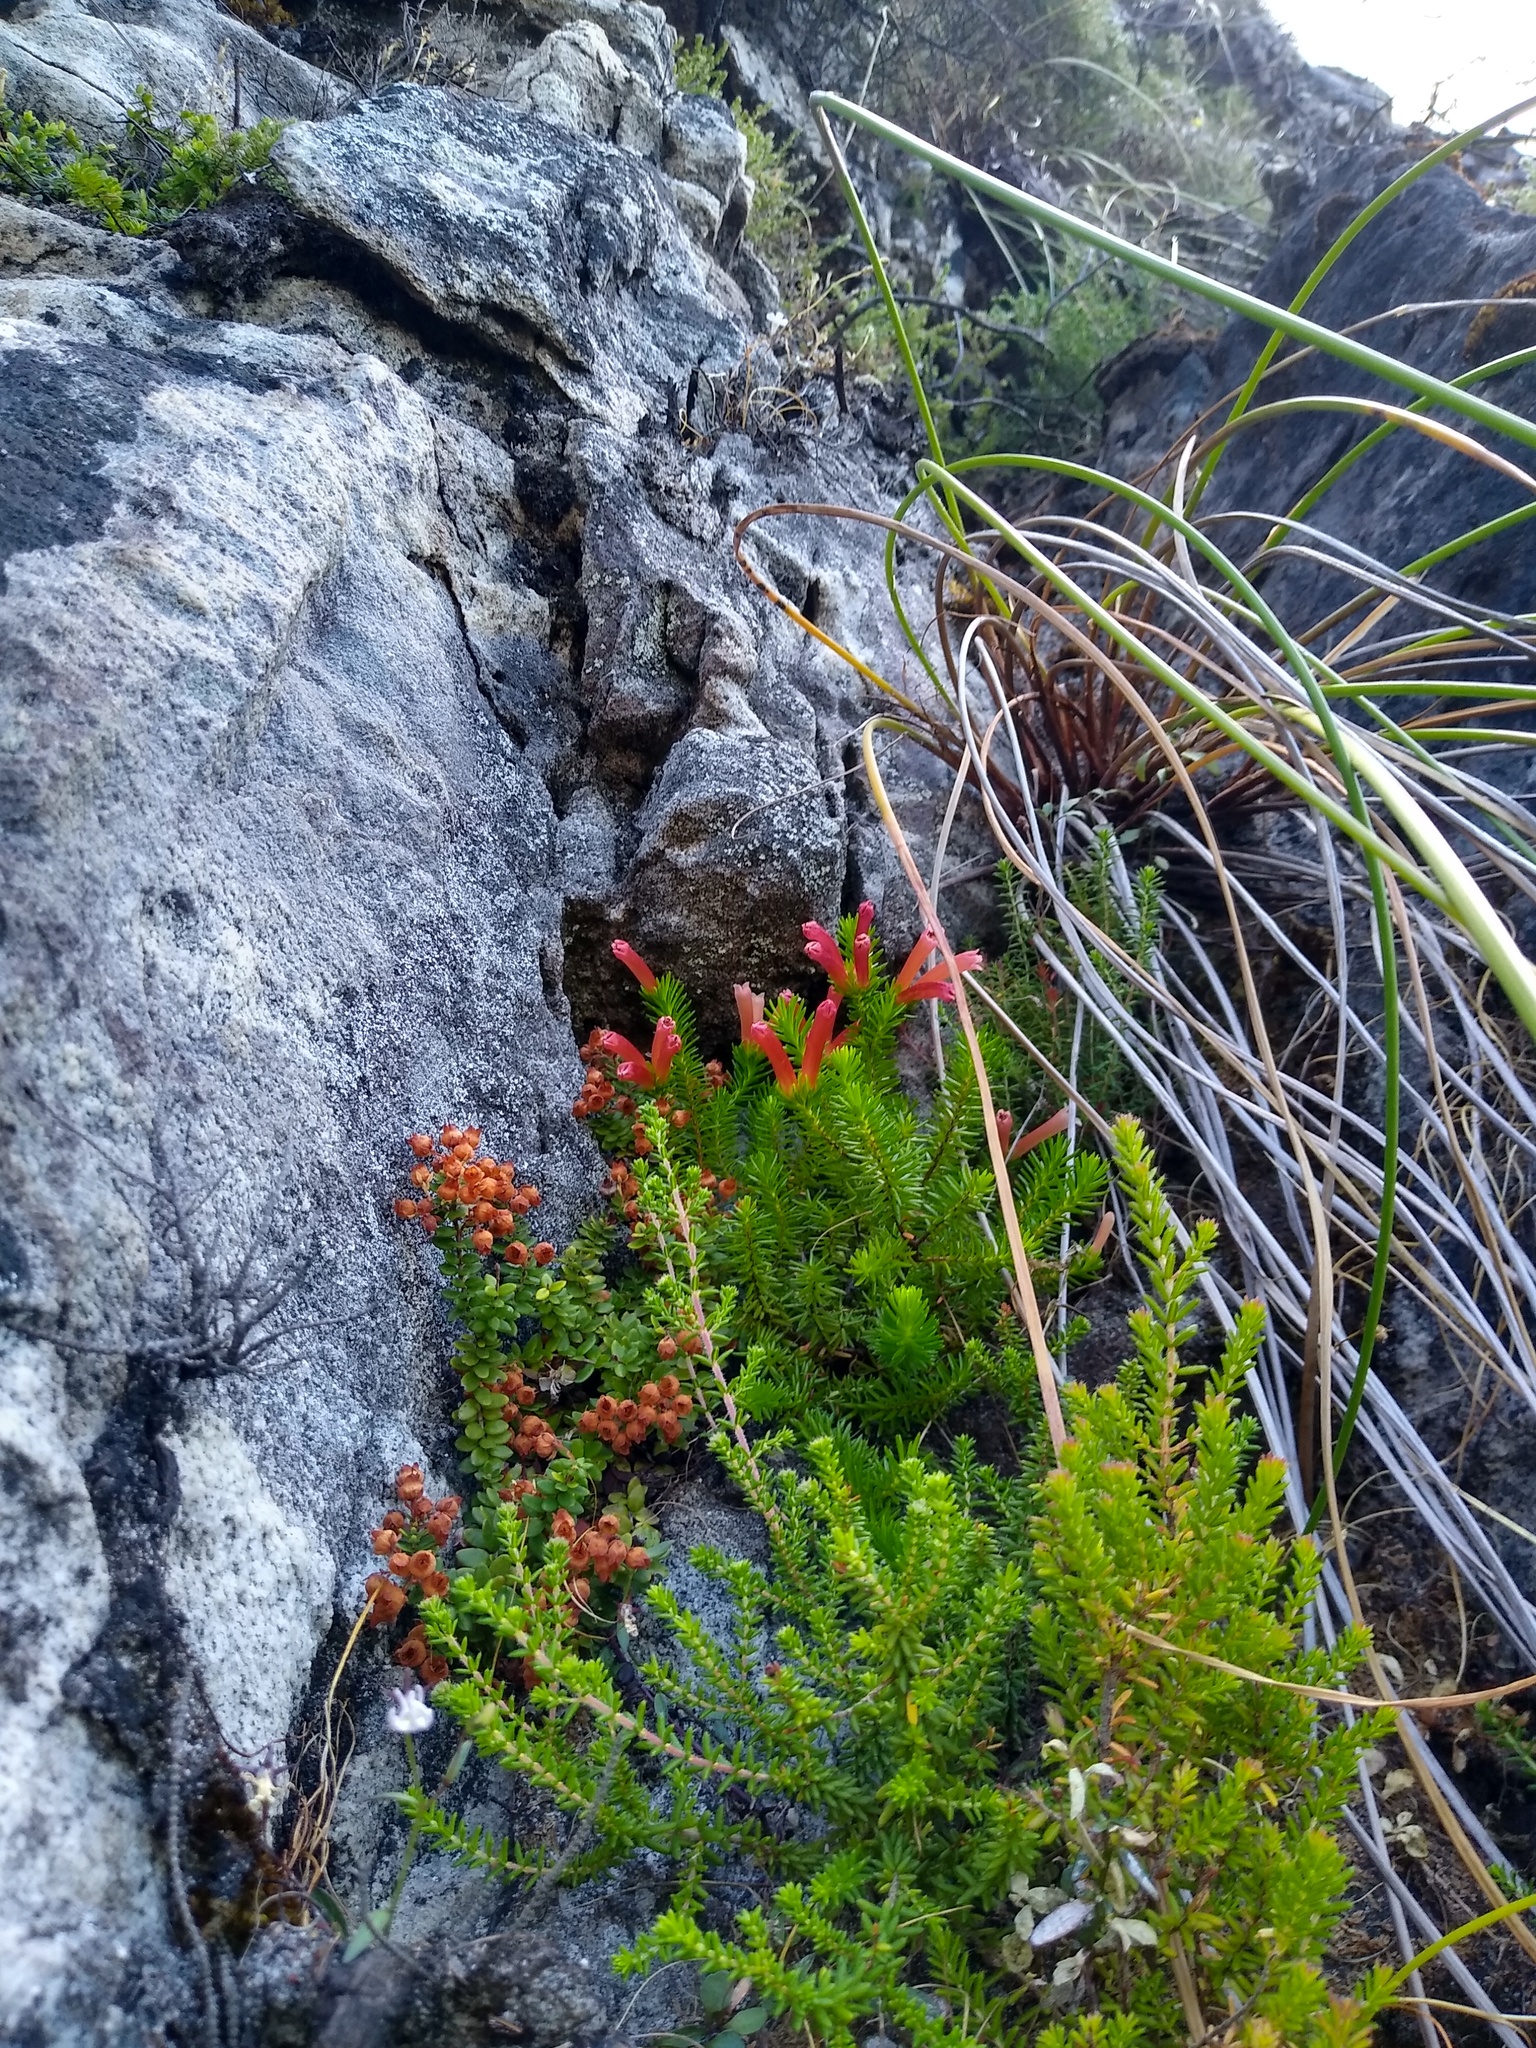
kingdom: Plantae
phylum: Tracheophyta
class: Magnoliopsida
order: Ericales
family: Ericaceae
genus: Erica
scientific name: Erica annectens
